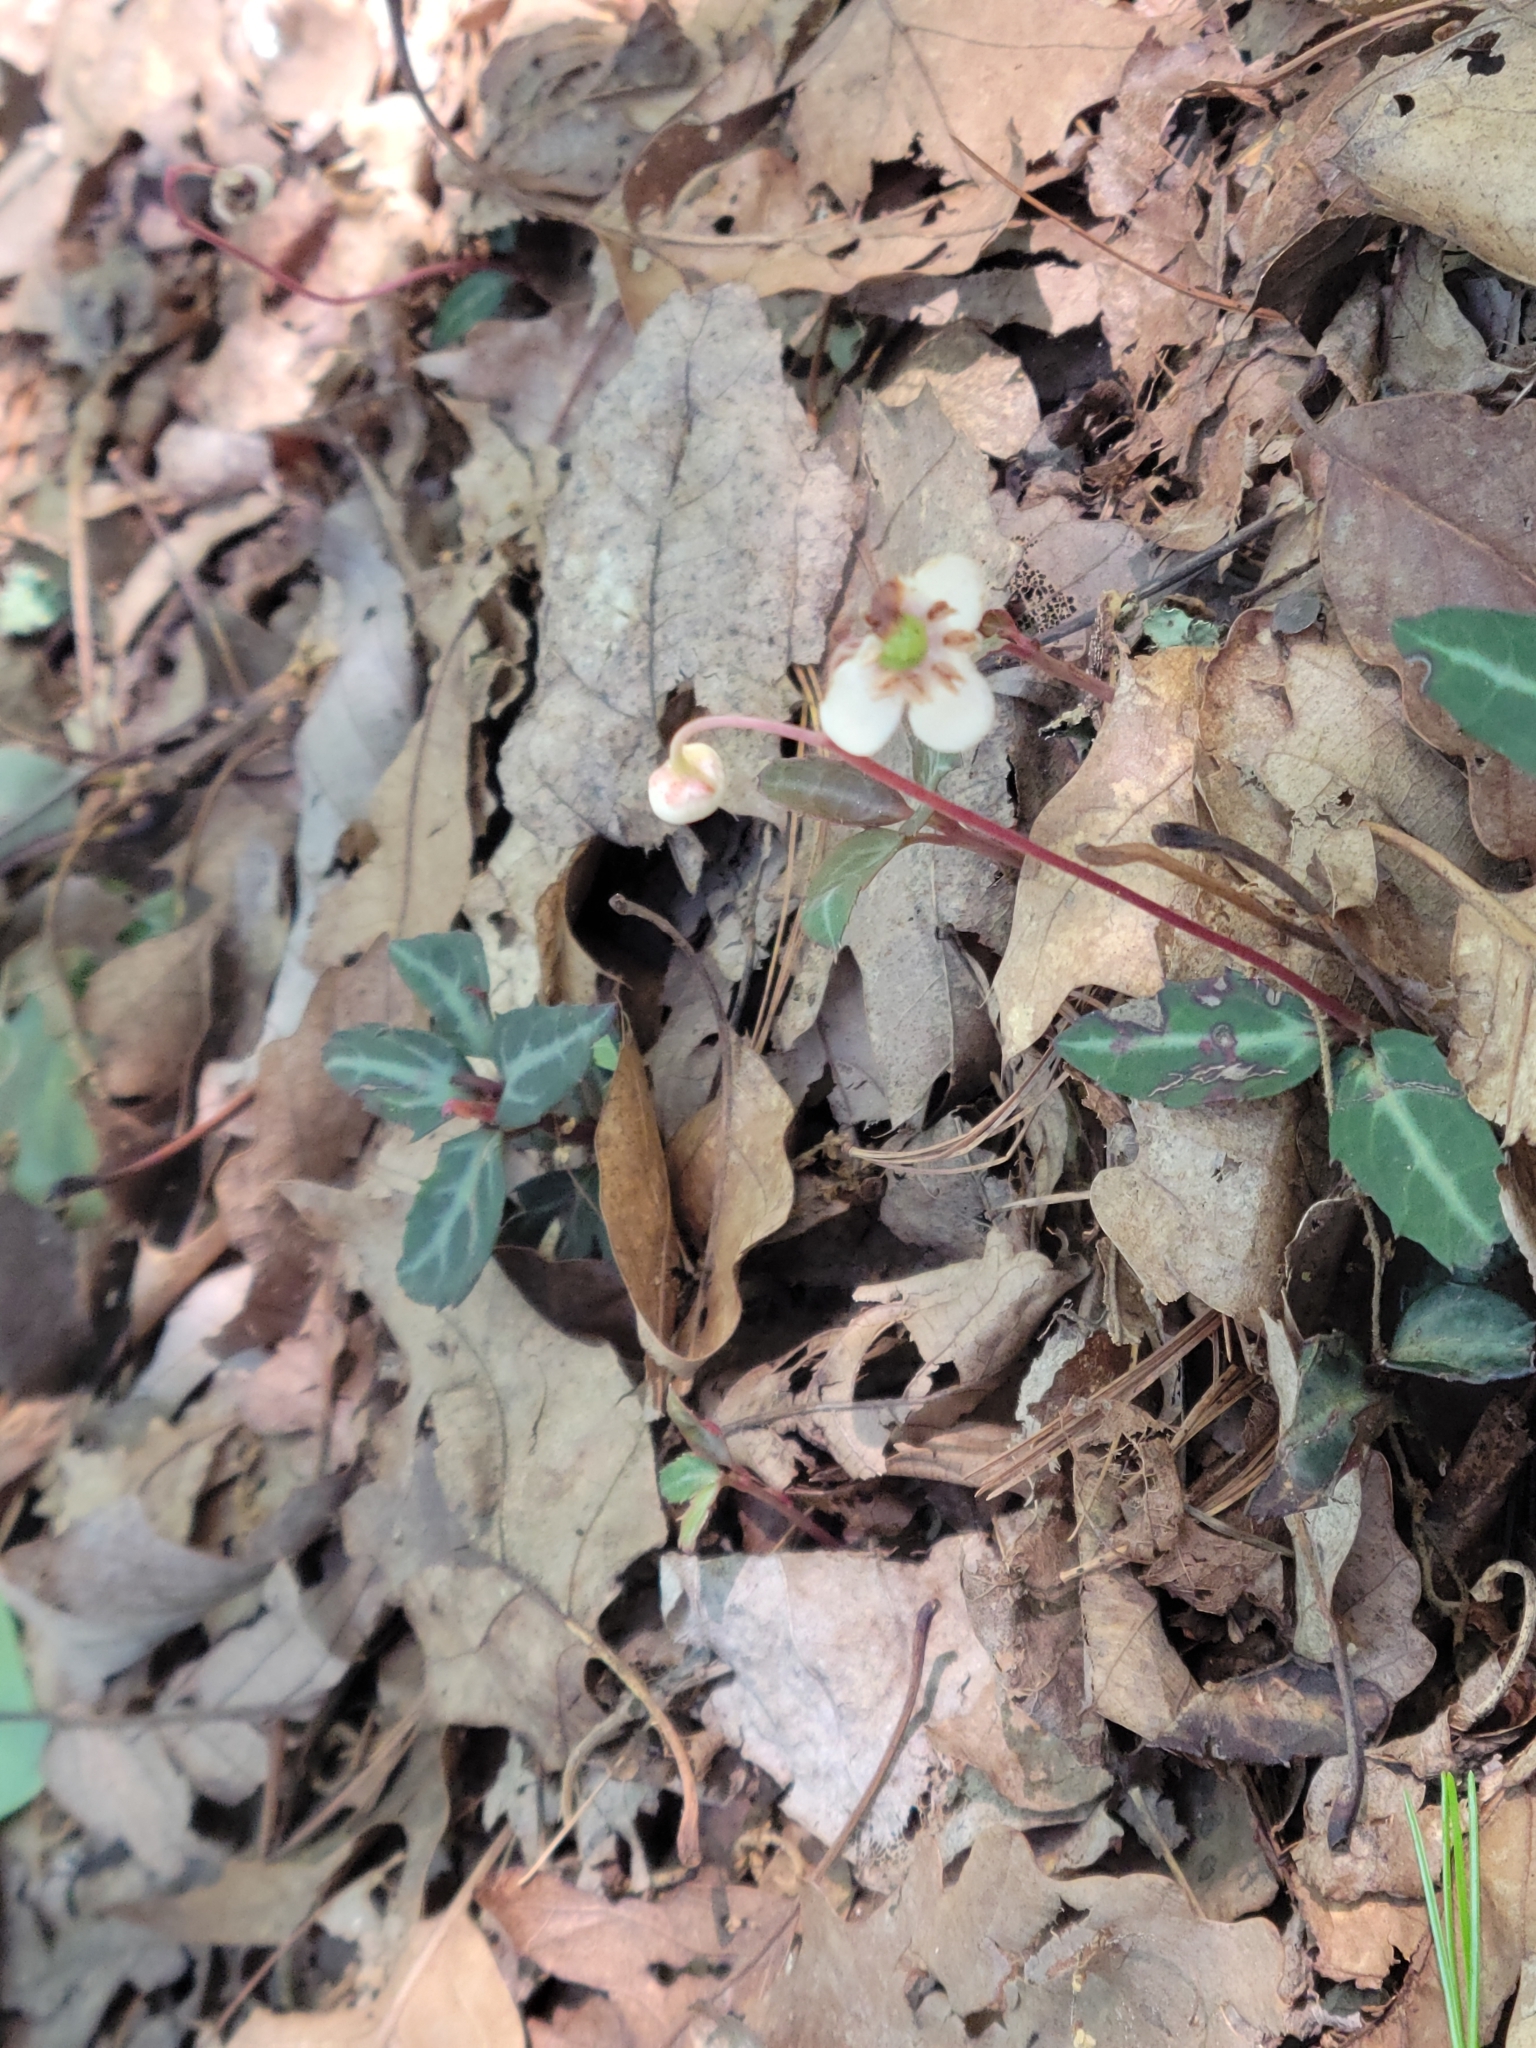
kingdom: Plantae
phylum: Tracheophyta
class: Magnoliopsida
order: Ericales
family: Ericaceae
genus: Chimaphila
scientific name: Chimaphila maculata
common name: Spotted pipsissewa
